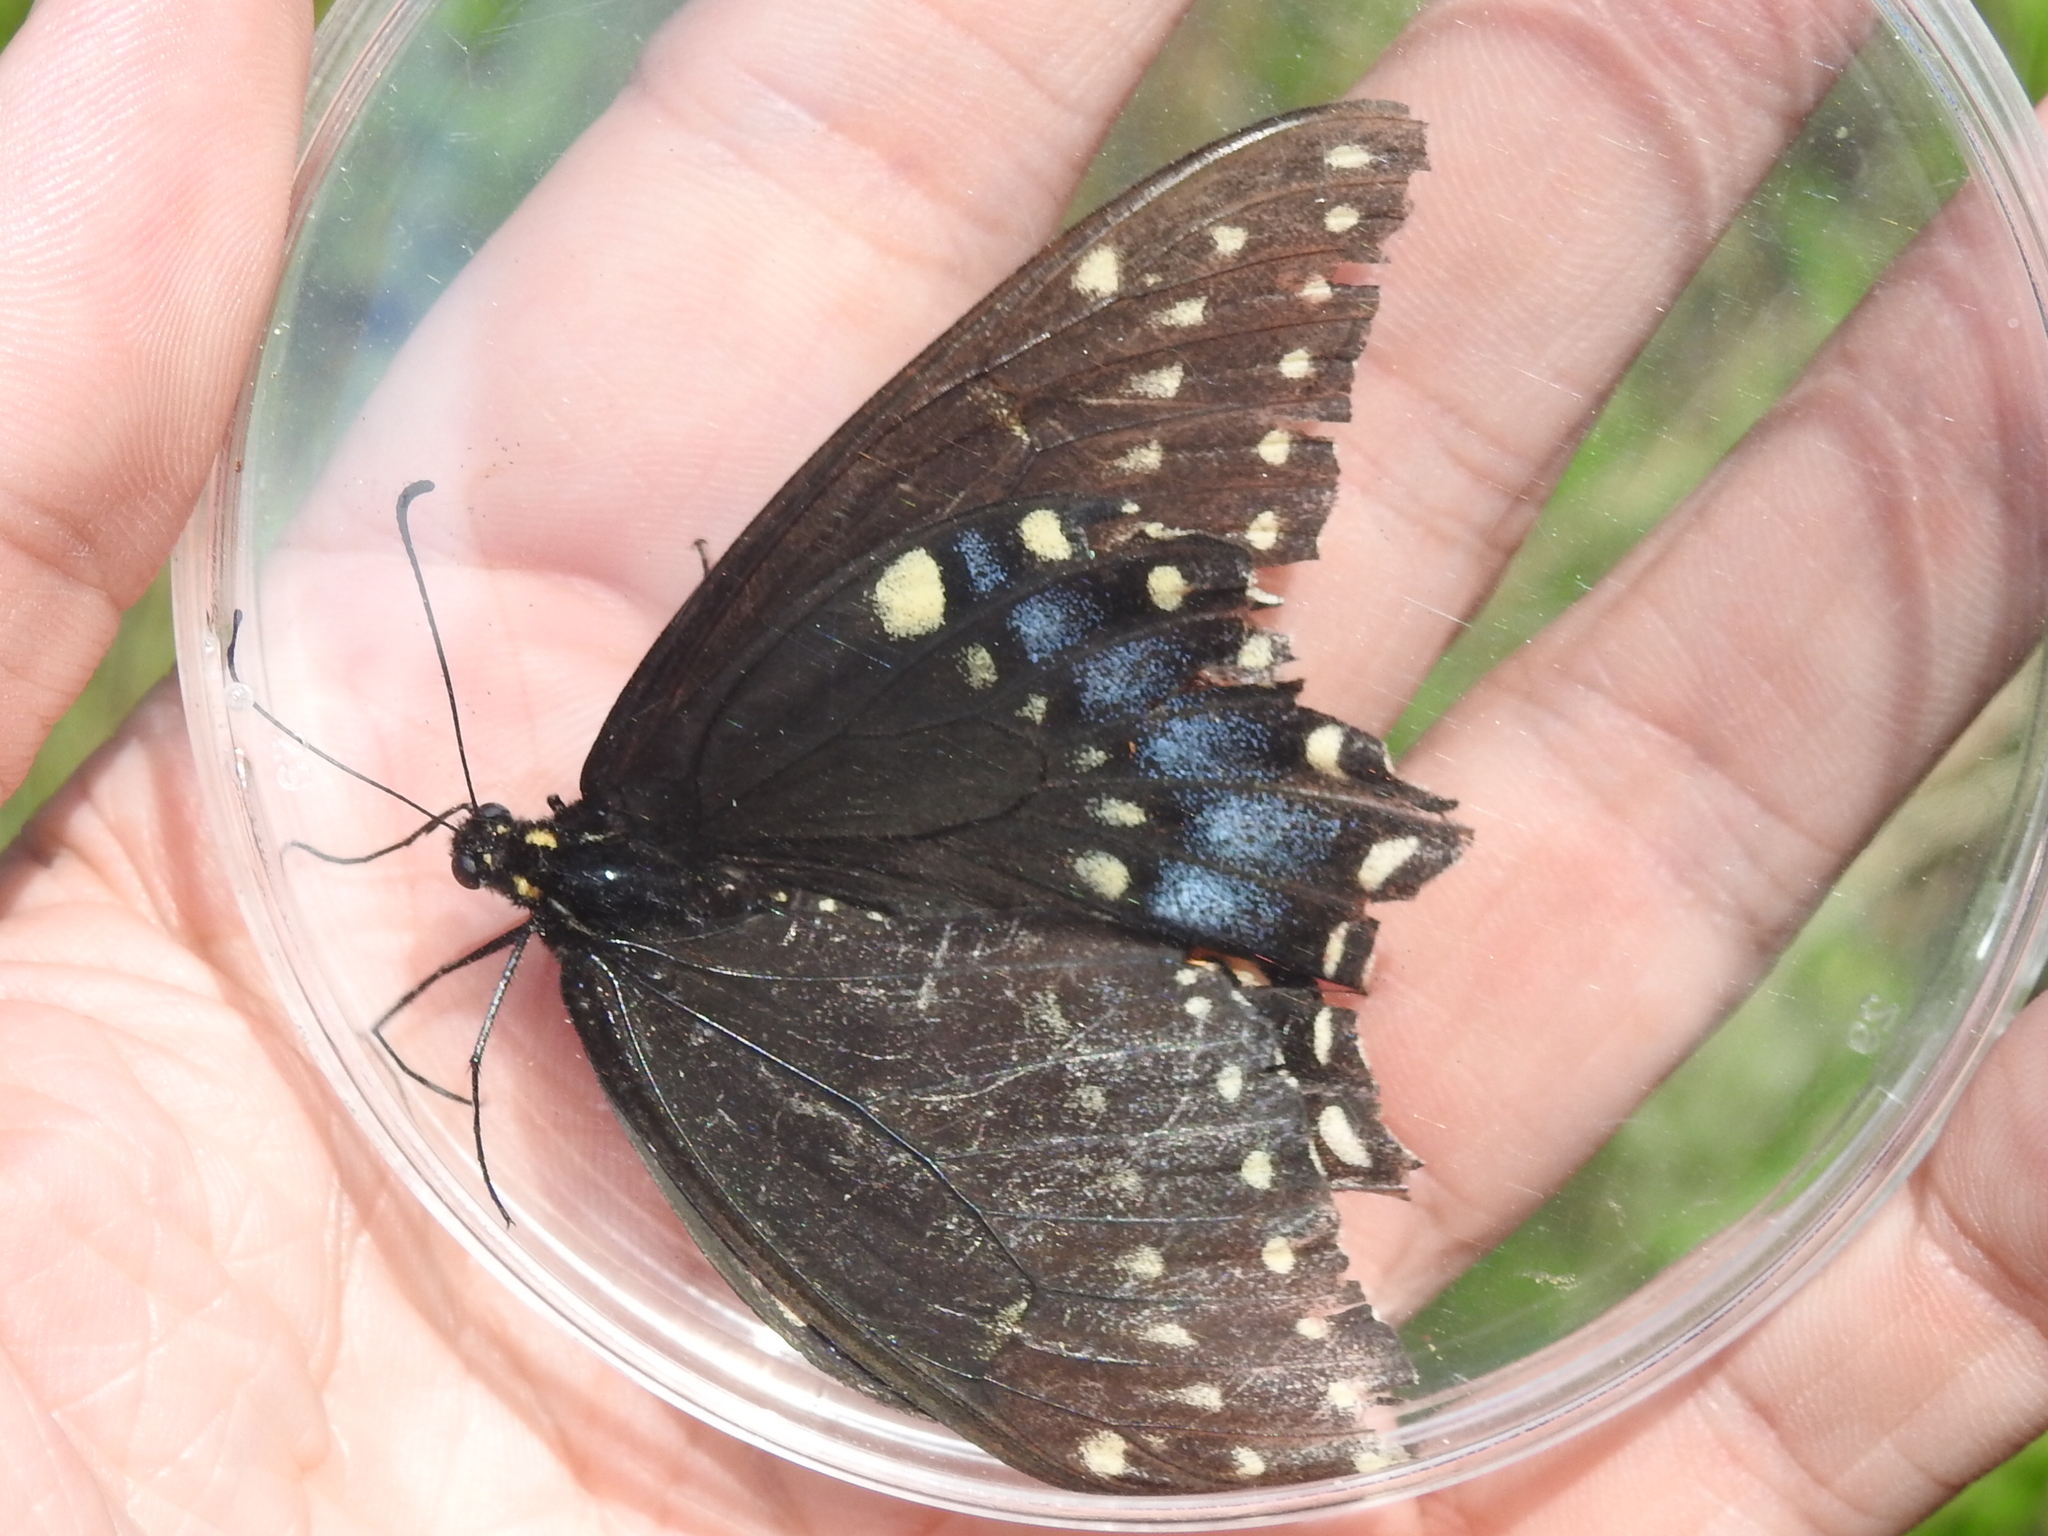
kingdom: Animalia
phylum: Arthropoda
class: Insecta
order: Lepidoptera
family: Papilionidae
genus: Papilio
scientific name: Papilio polyxenes
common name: Black swallowtail
